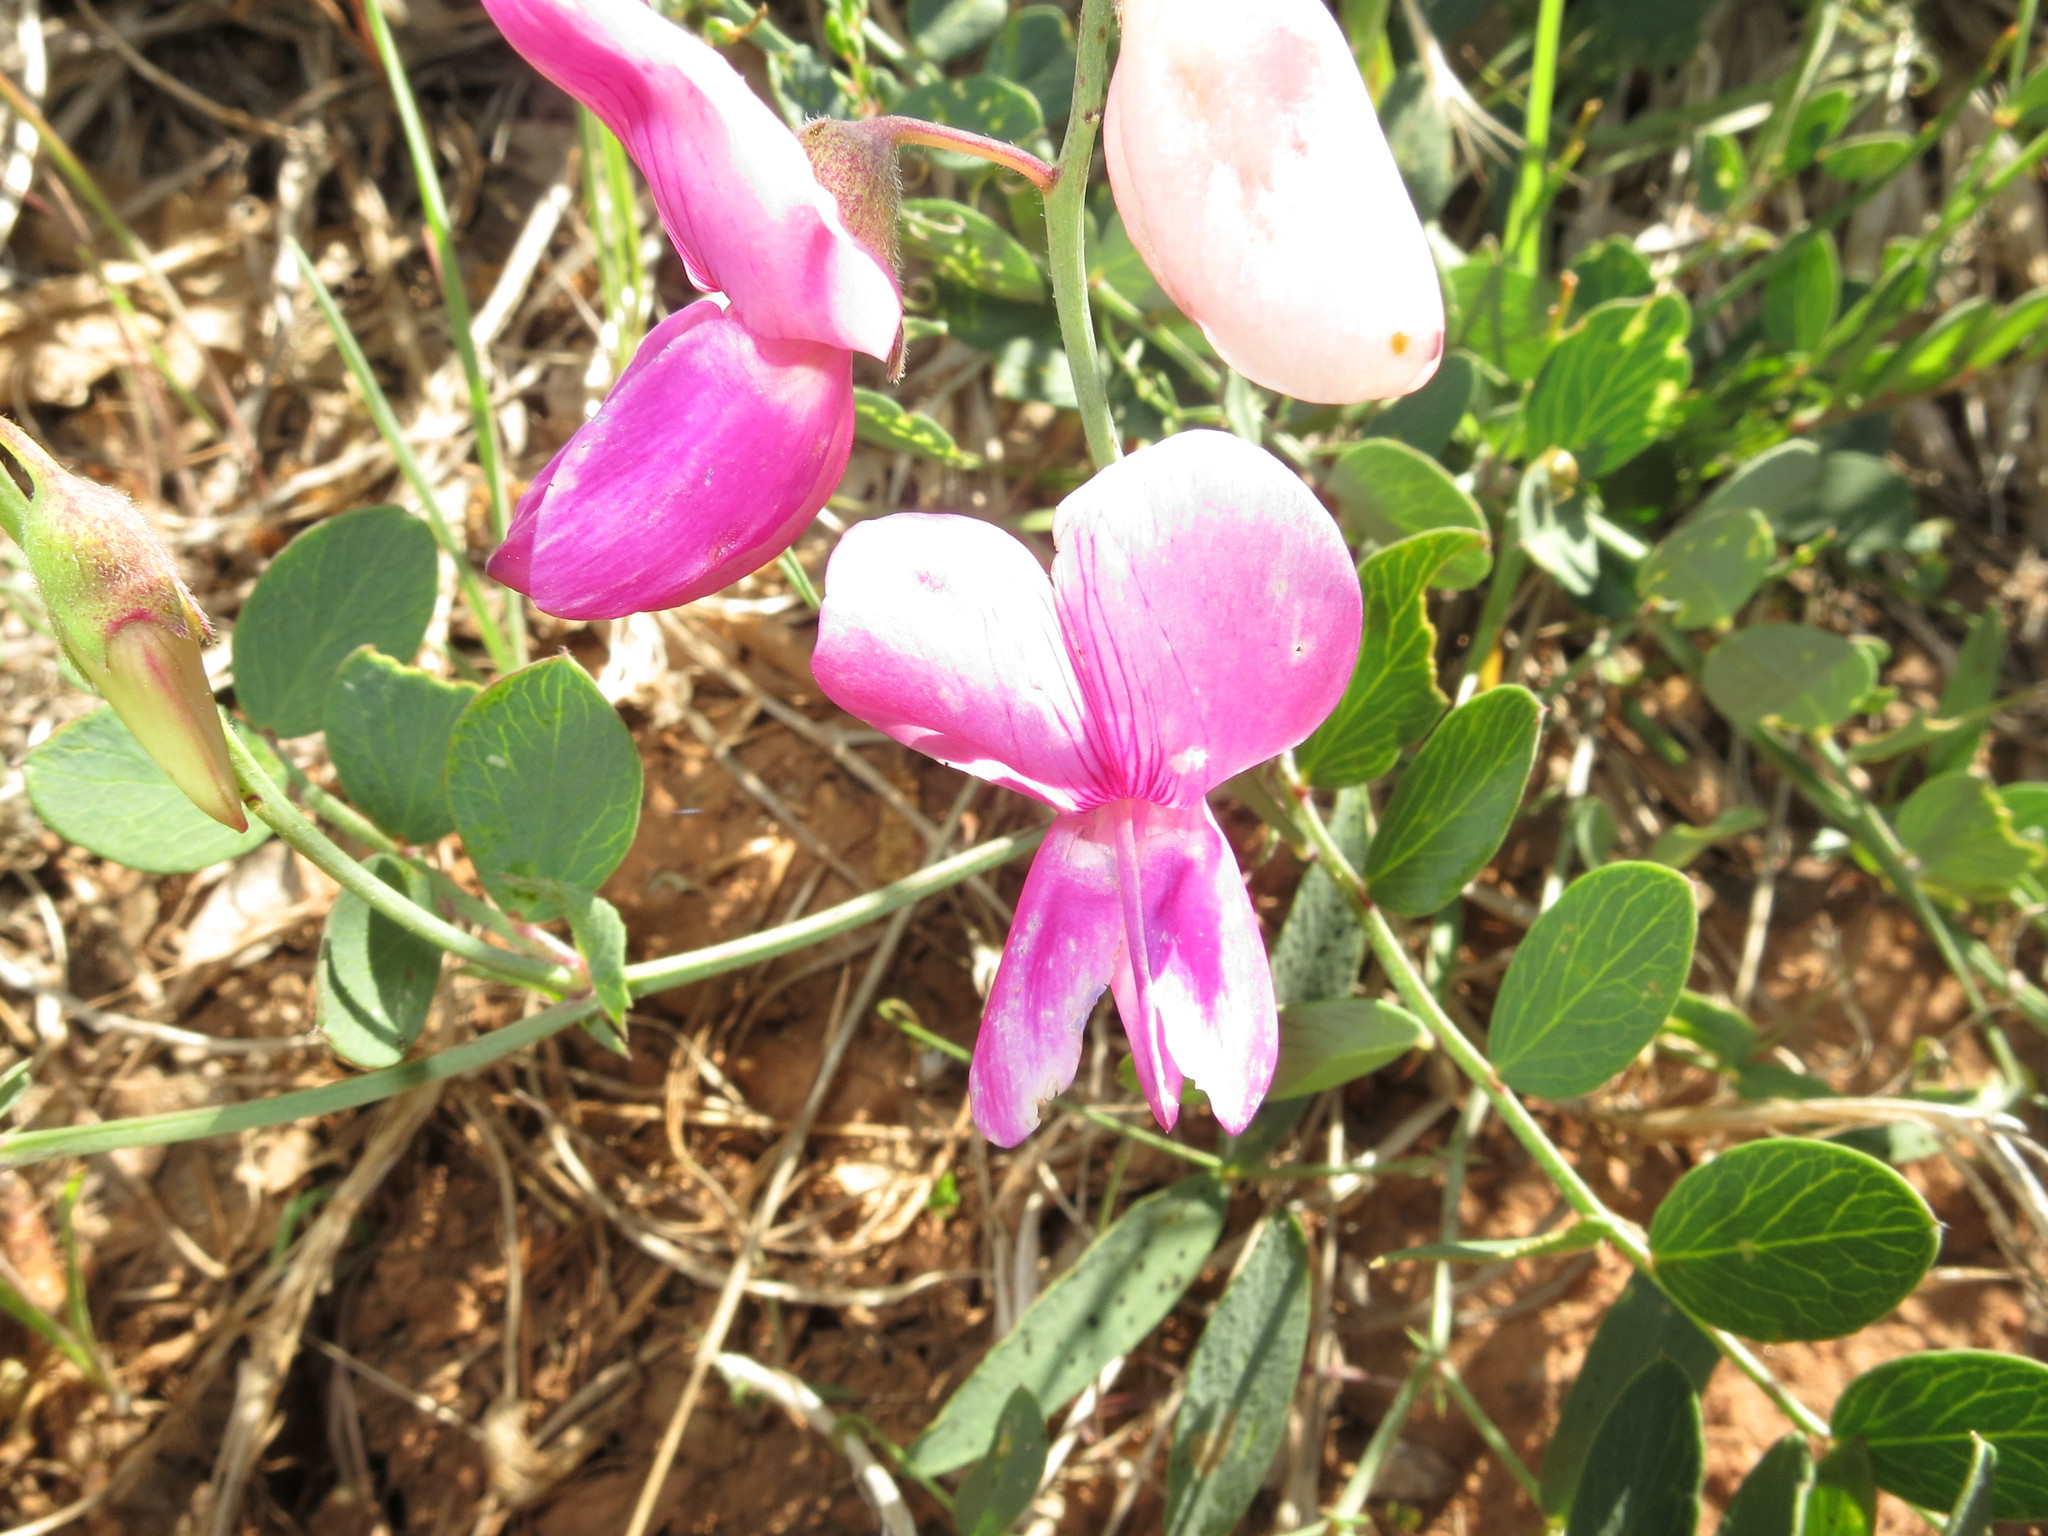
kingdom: Plantae
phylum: Tracheophyta
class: Magnoliopsida
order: Fabales
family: Fabaceae
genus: Lathyrus
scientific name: Lathyrus vestitus
